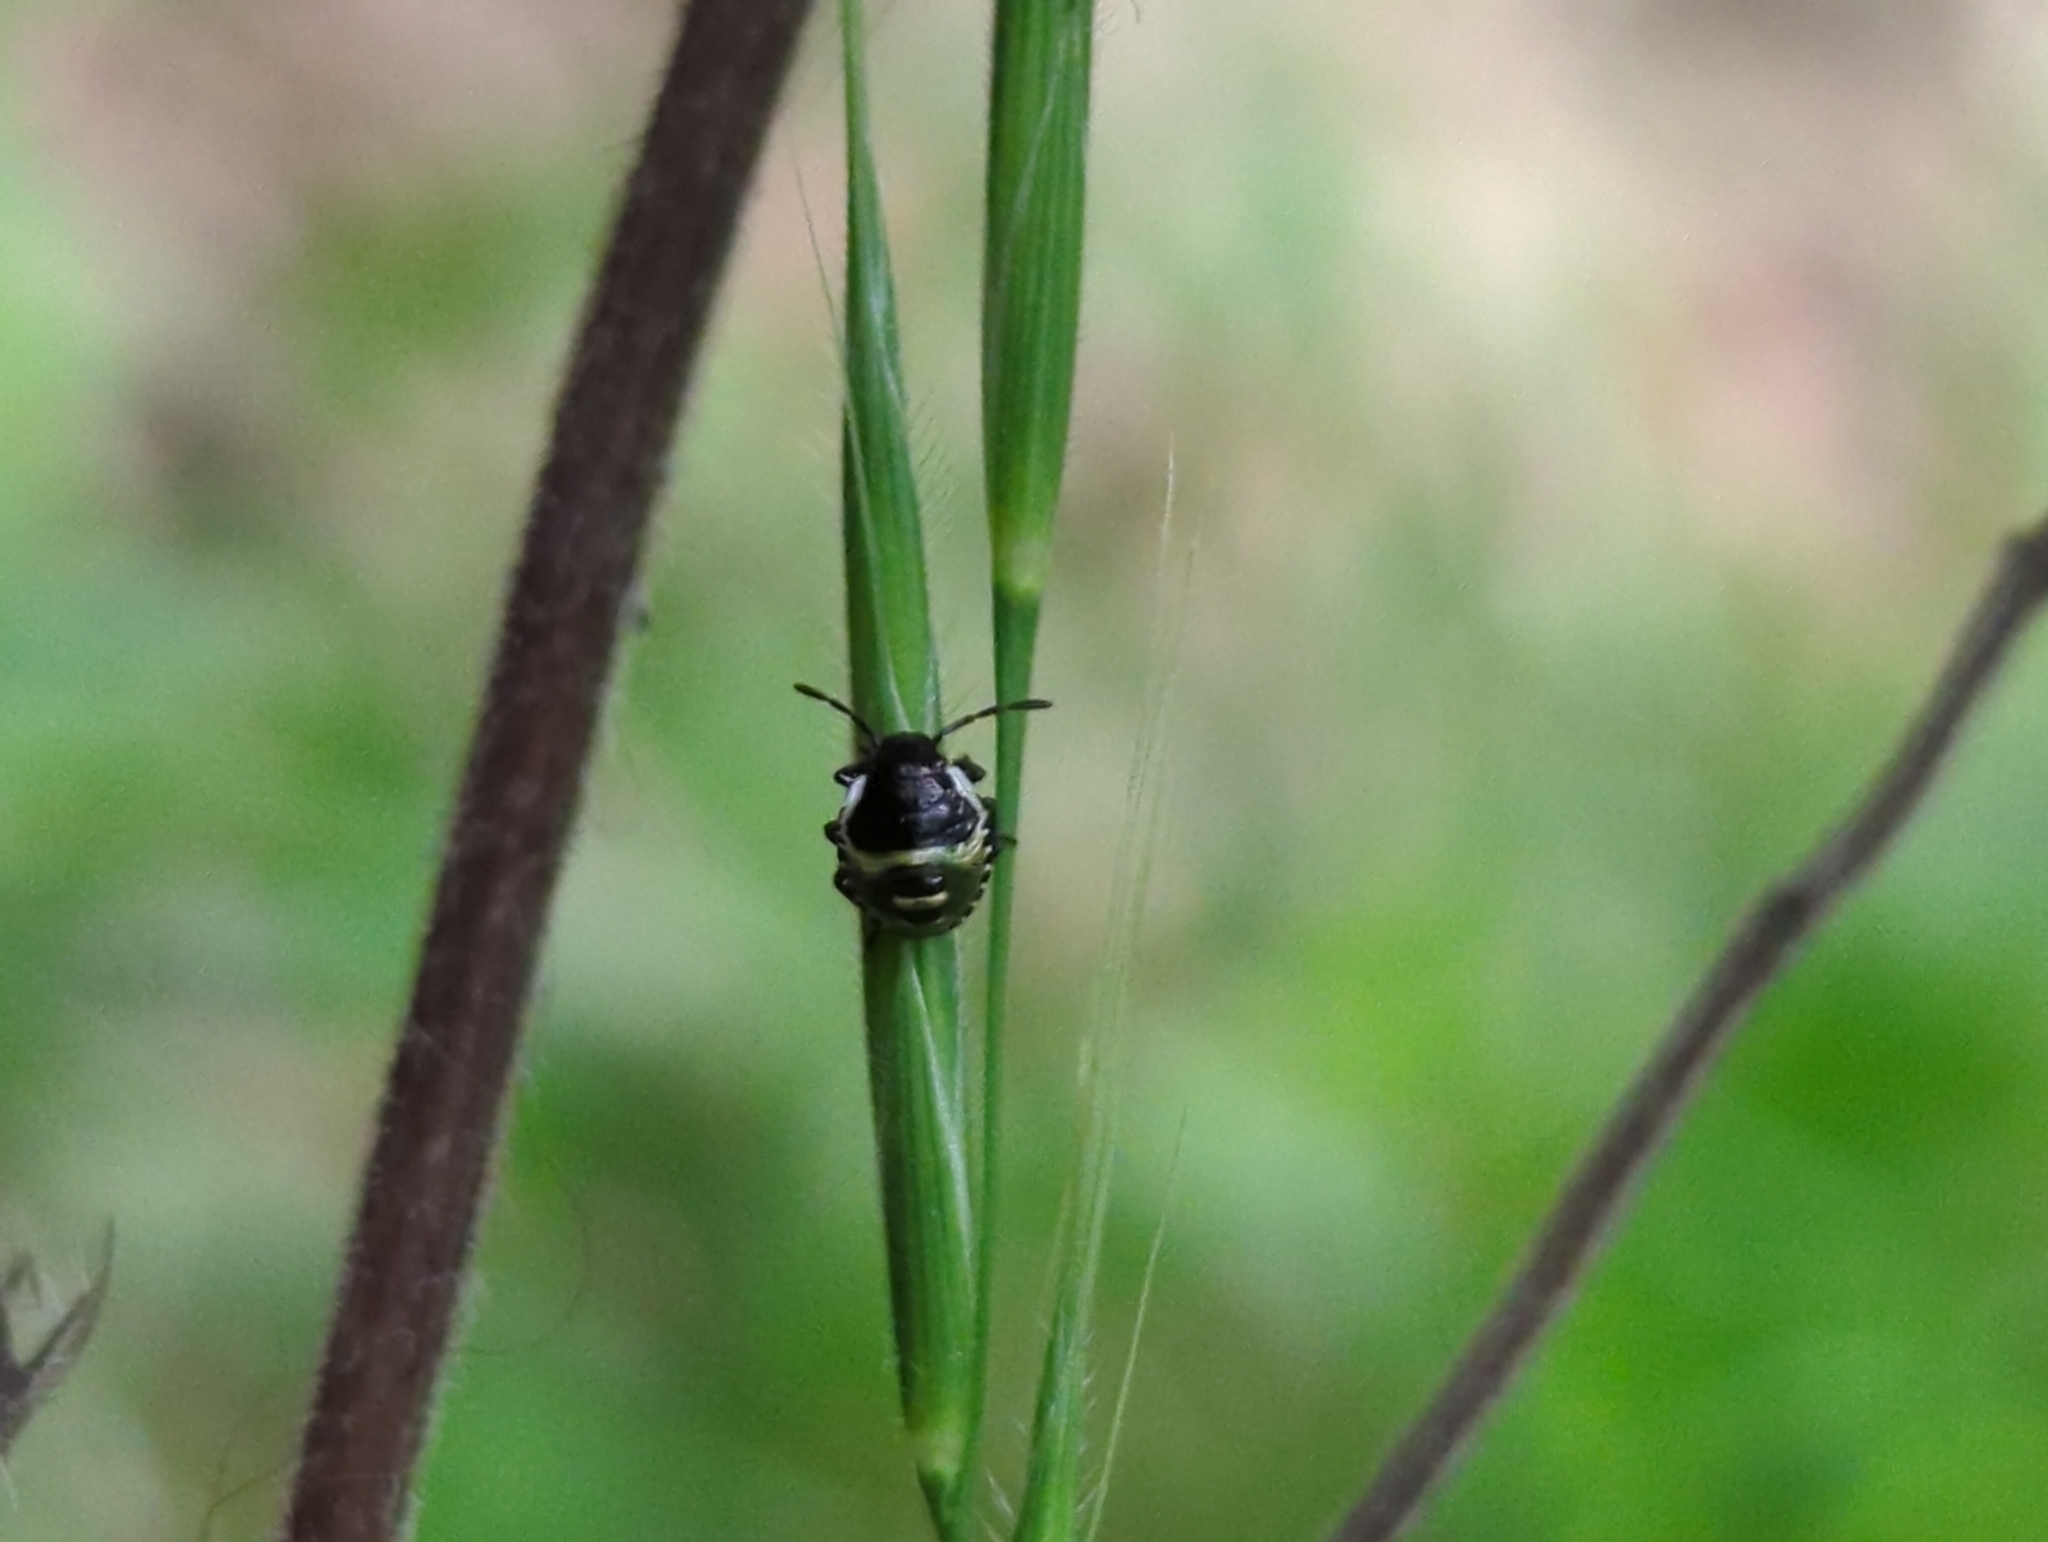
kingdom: Animalia
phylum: Arthropoda
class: Insecta
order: Hemiptera
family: Pentatomidae
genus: Palomena
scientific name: Palomena prasina
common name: Green shieldbug
